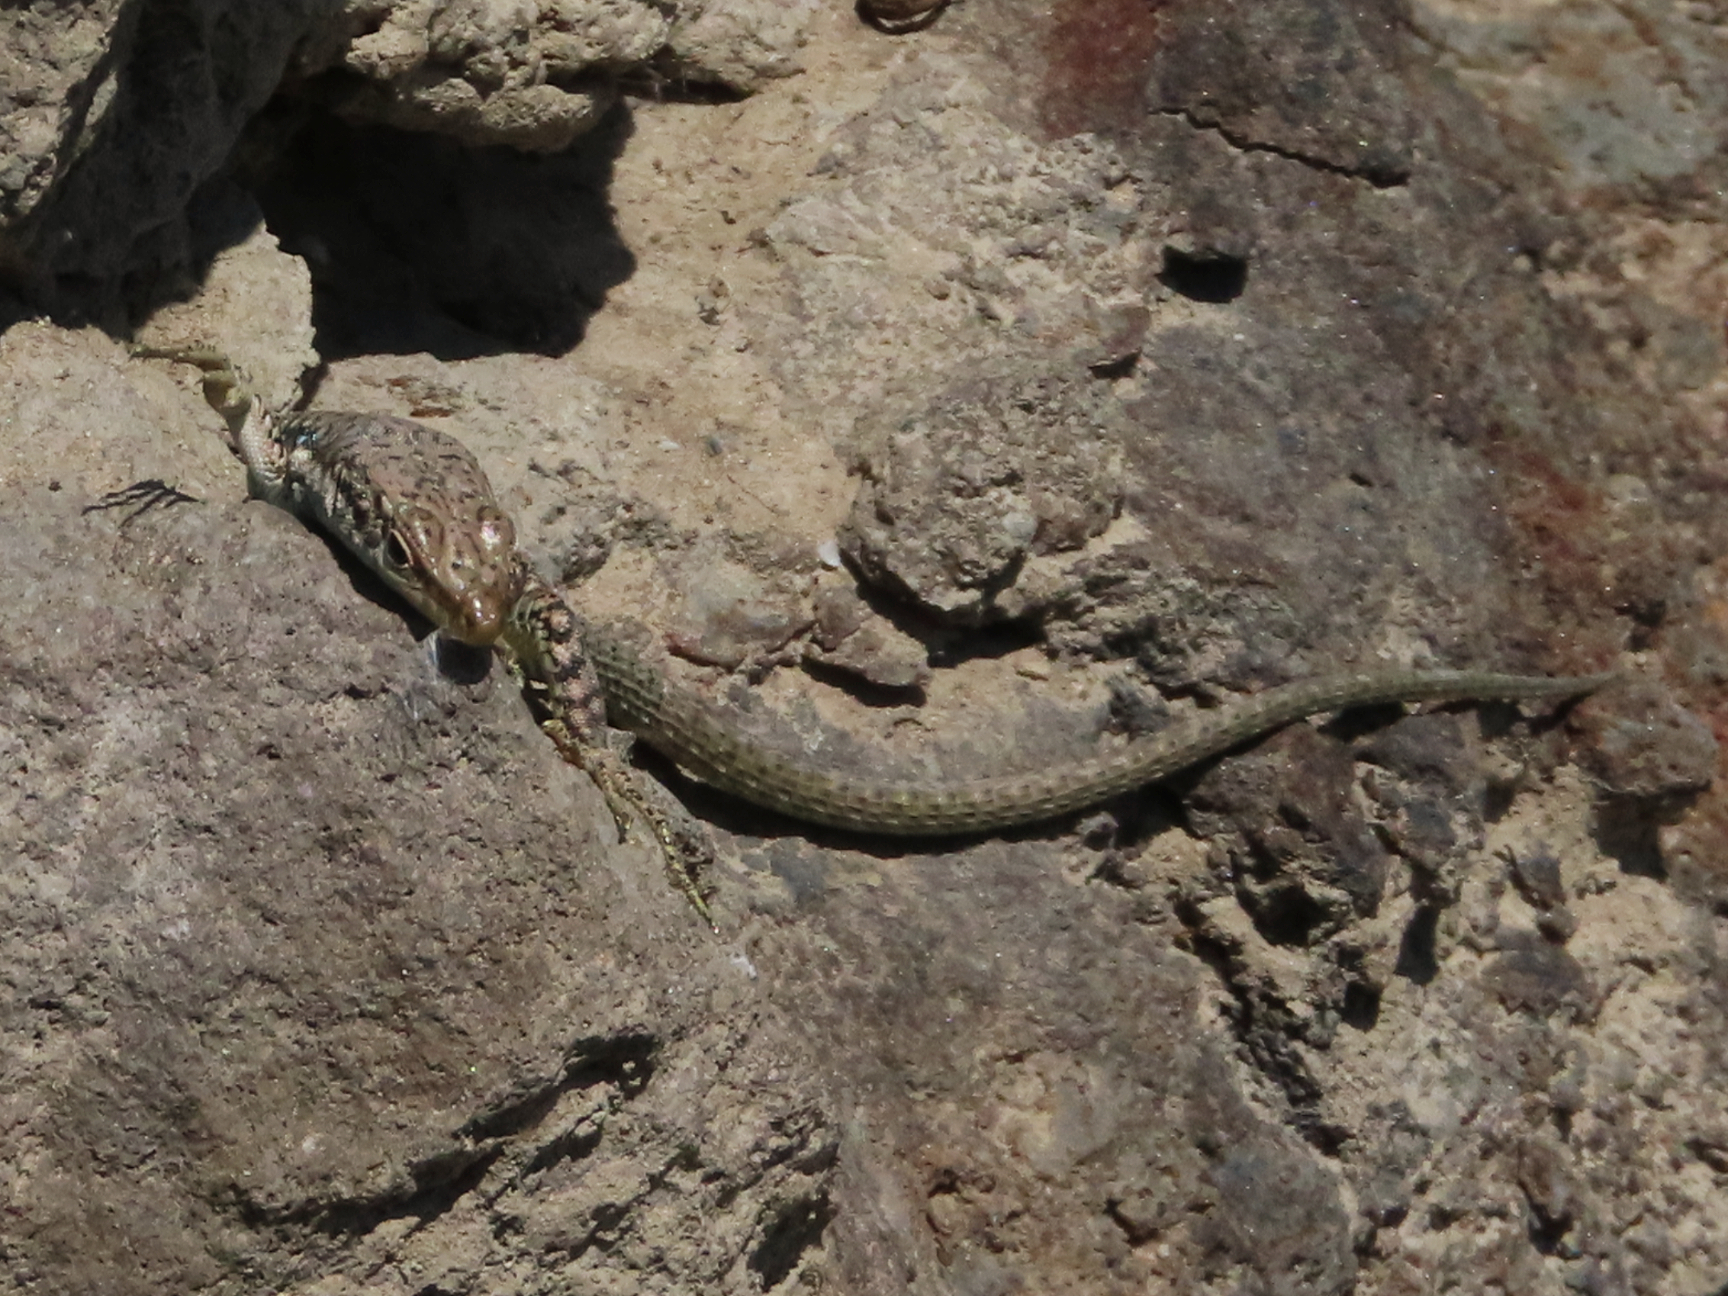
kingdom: Animalia
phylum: Chordata
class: Squamata
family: Lacertidae
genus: Darevskia
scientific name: Darevskia
